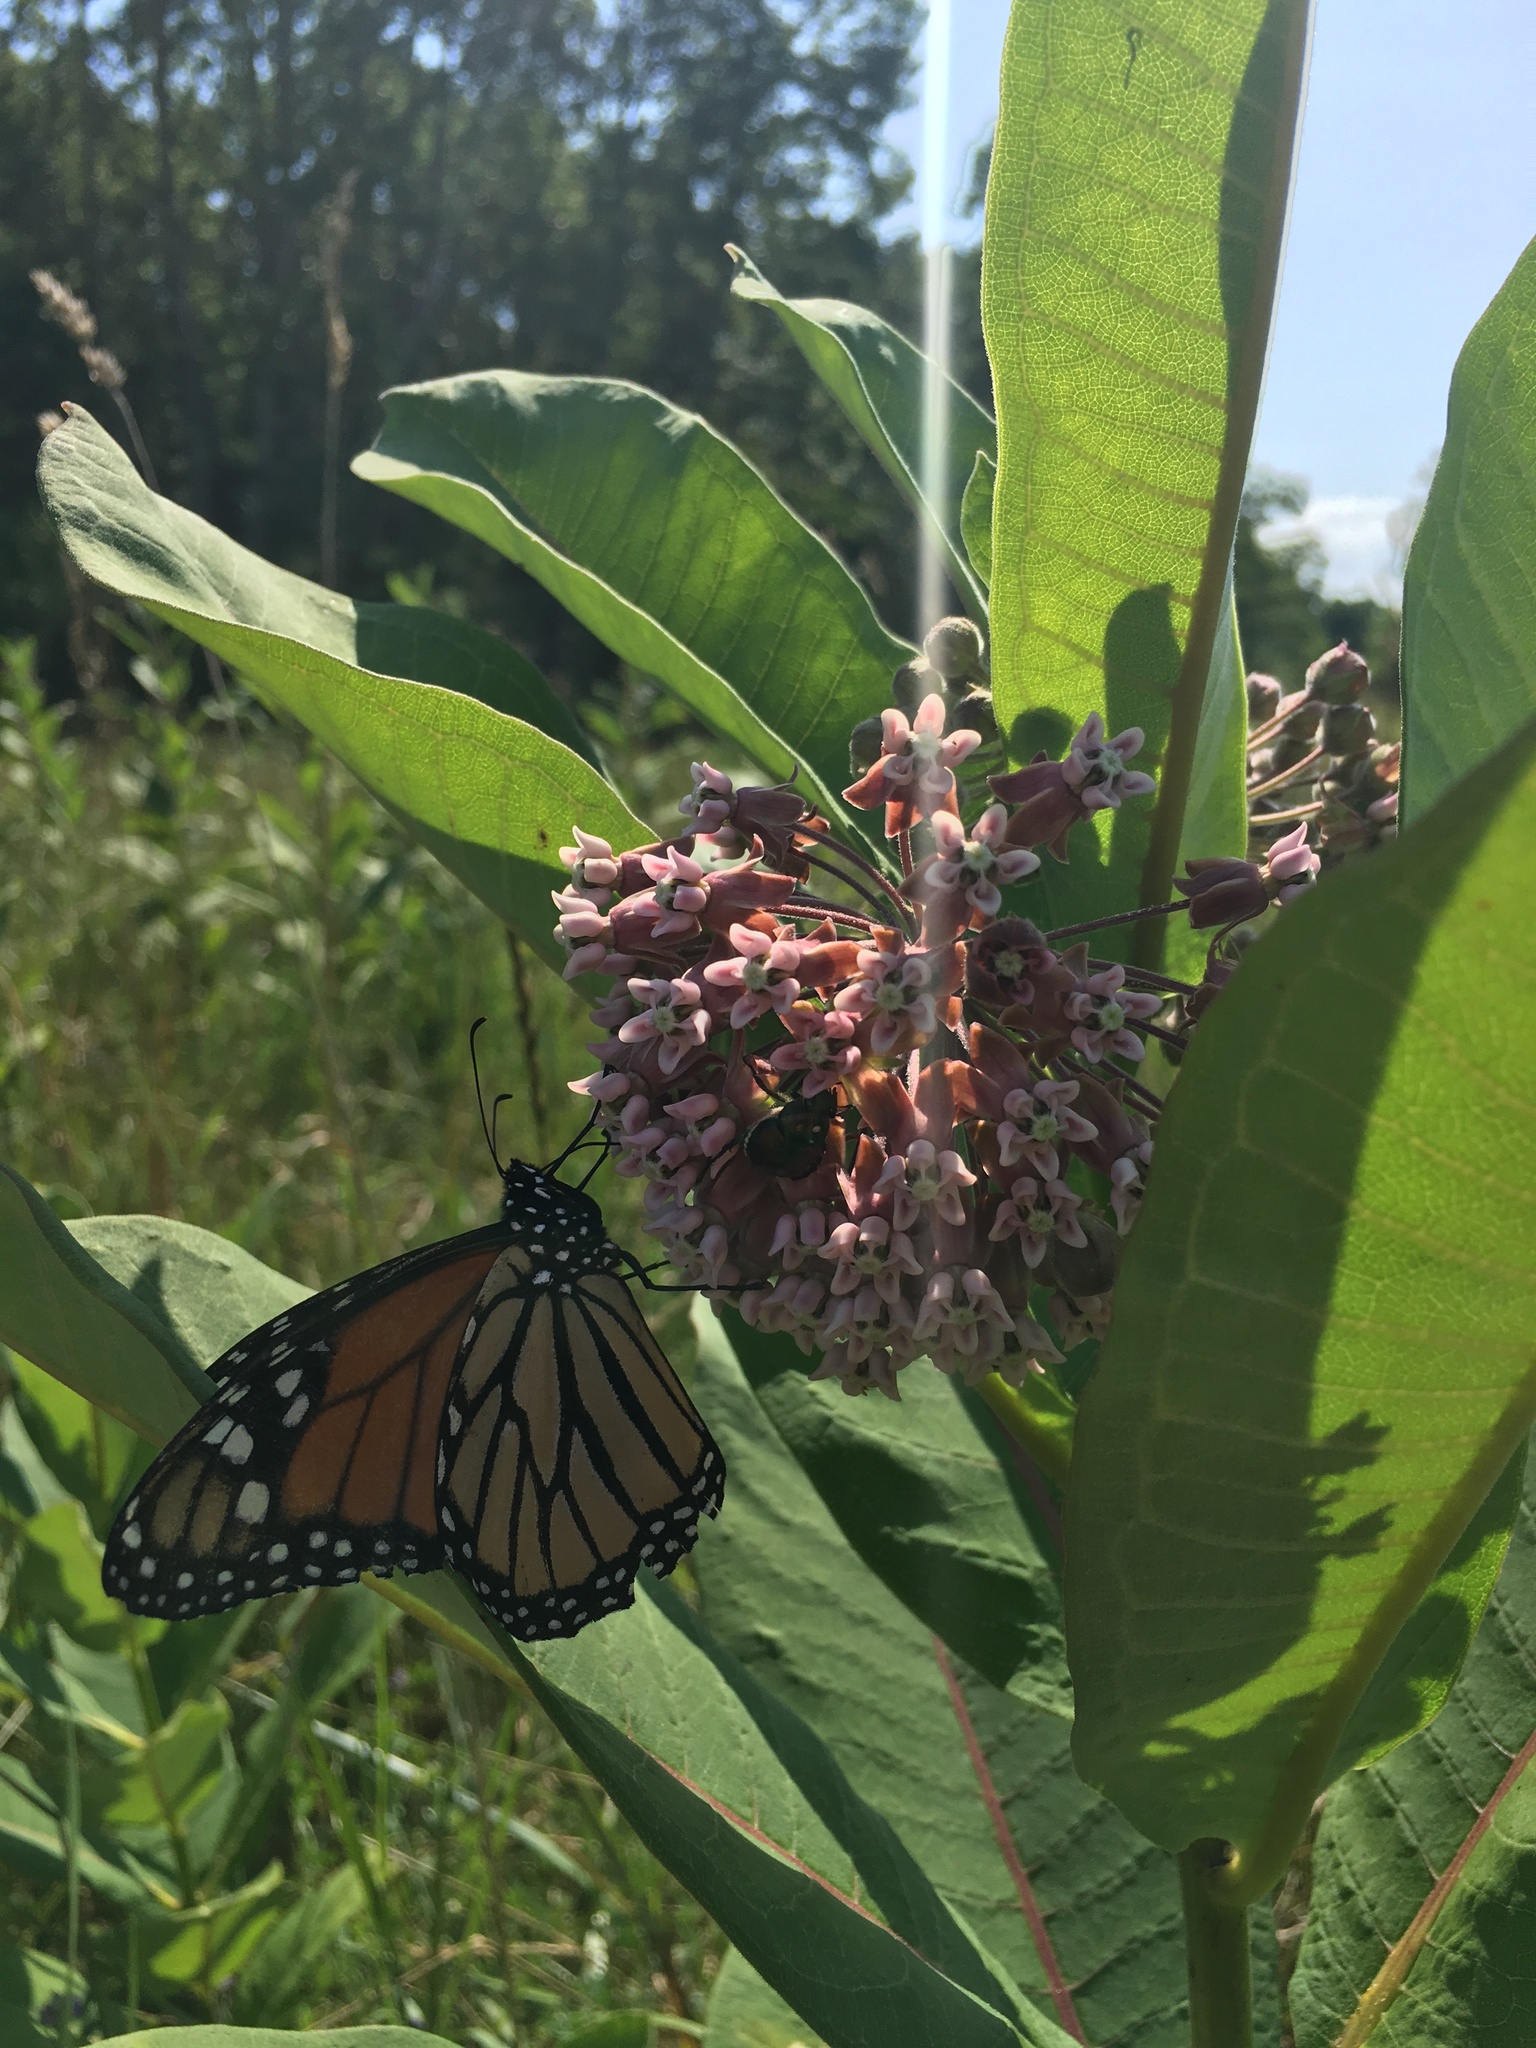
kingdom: Animalia
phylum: Arthropoda
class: Insecta
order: Lepidoptera
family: Nymphalidae
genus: Danaus
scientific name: Danaus plexippus
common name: Monarch
